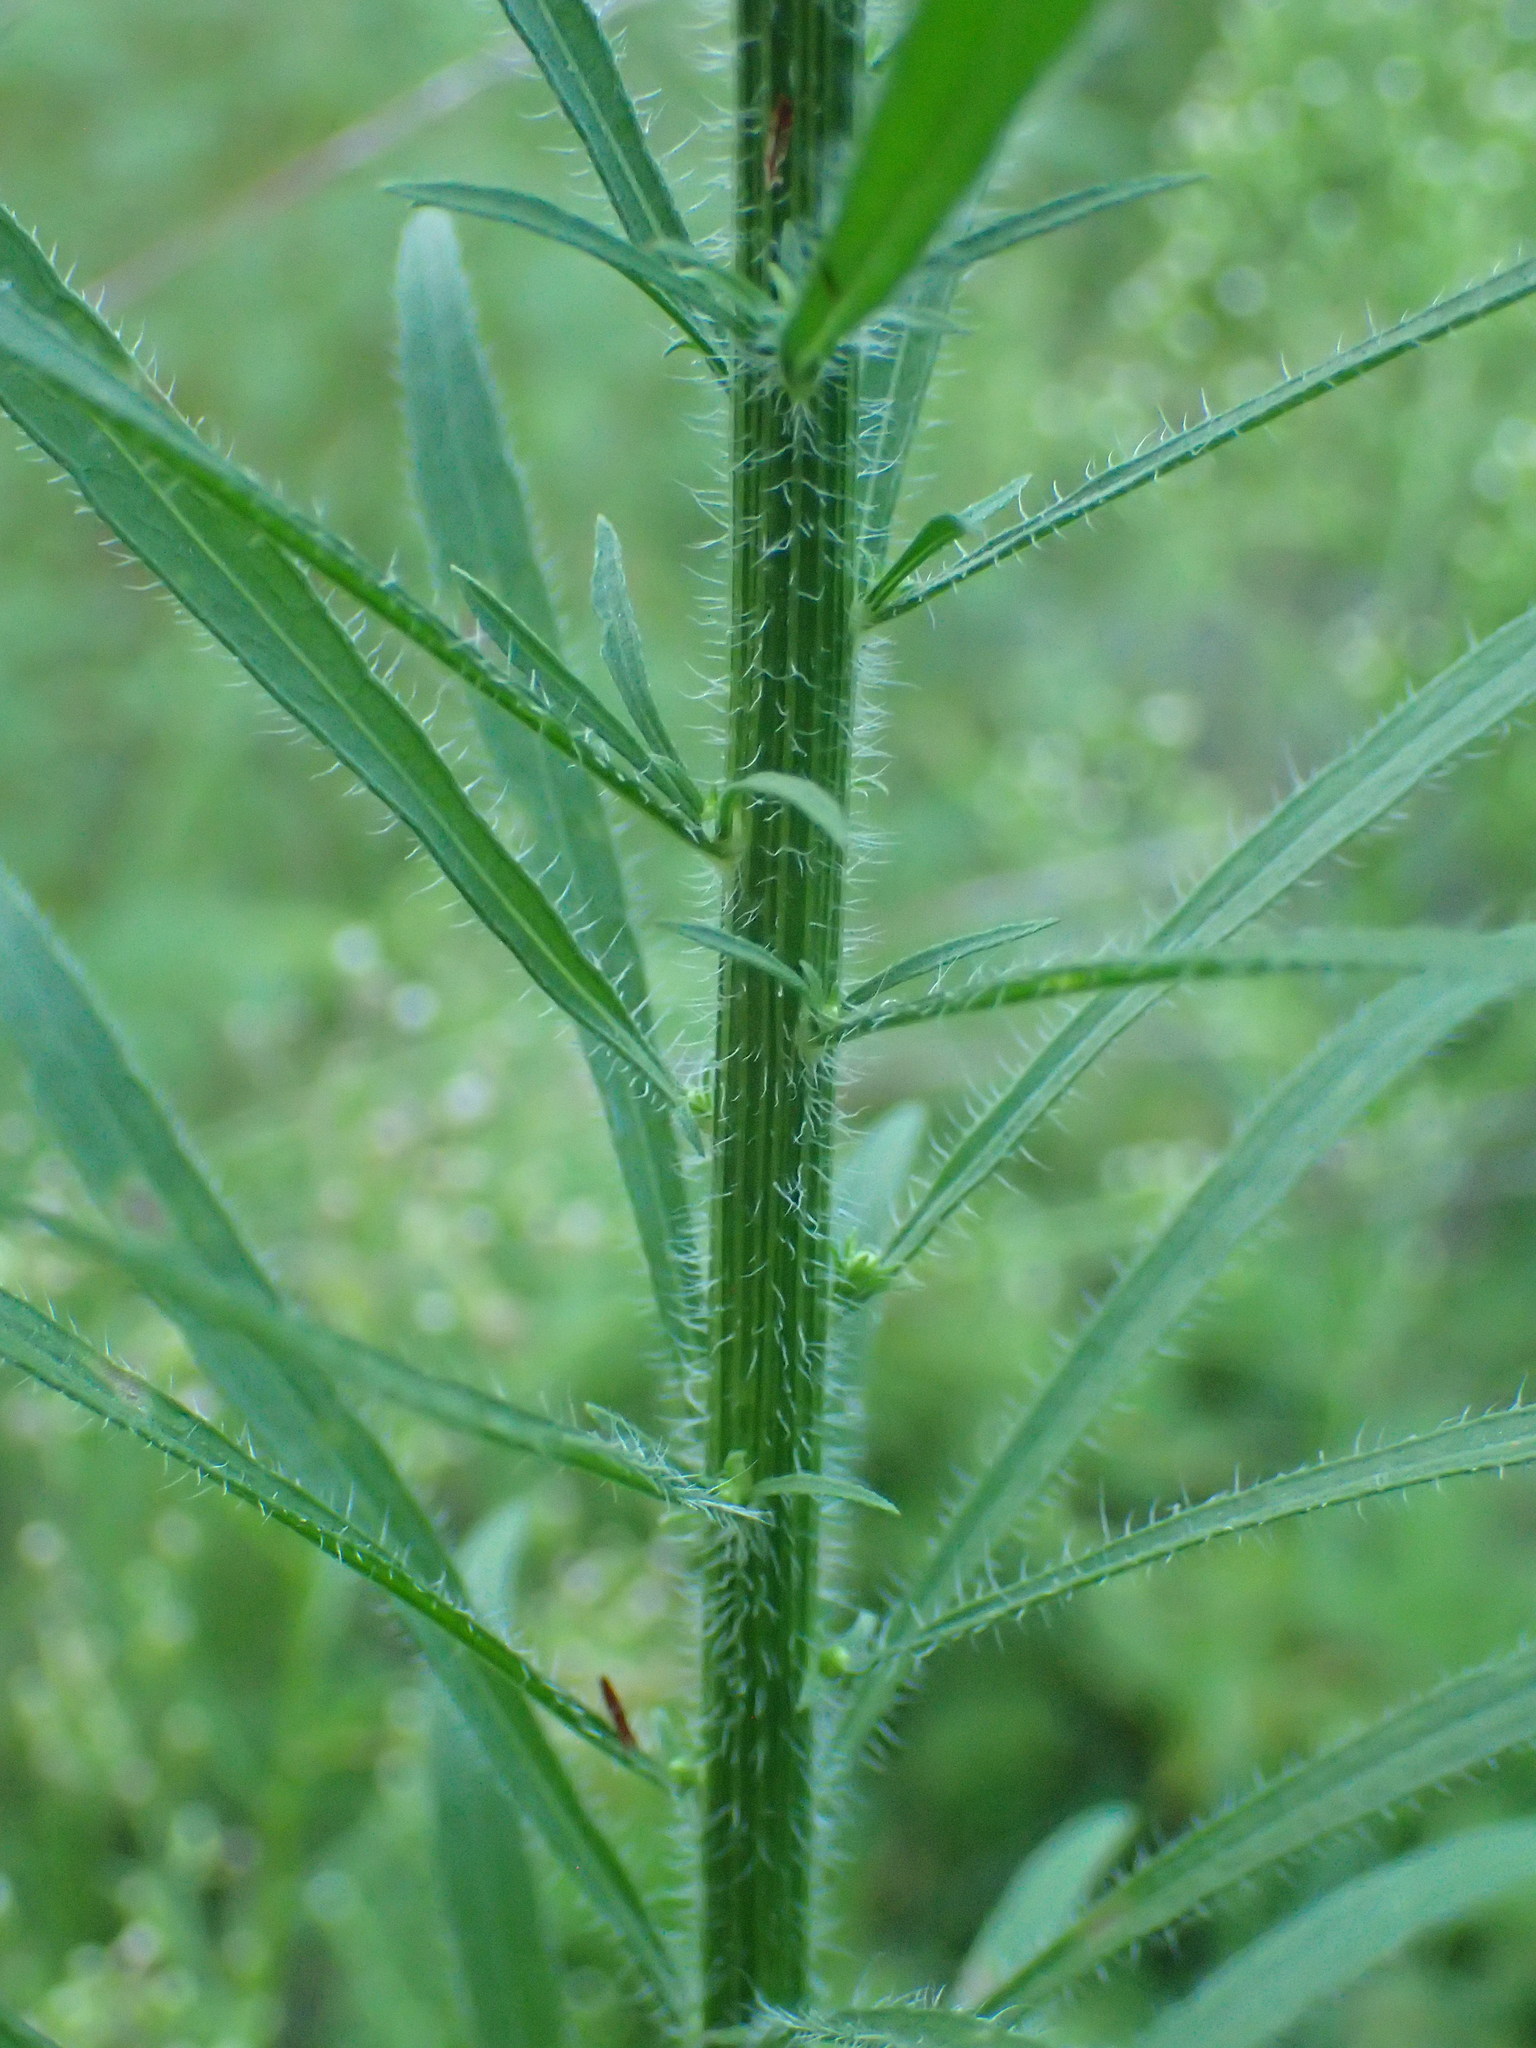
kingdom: Plantae
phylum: Tracheophyta
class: Magnoliopsida
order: Asterales
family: Asteraceae
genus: Erigeron
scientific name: Erigeron canadensis
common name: Canadian fleabane
